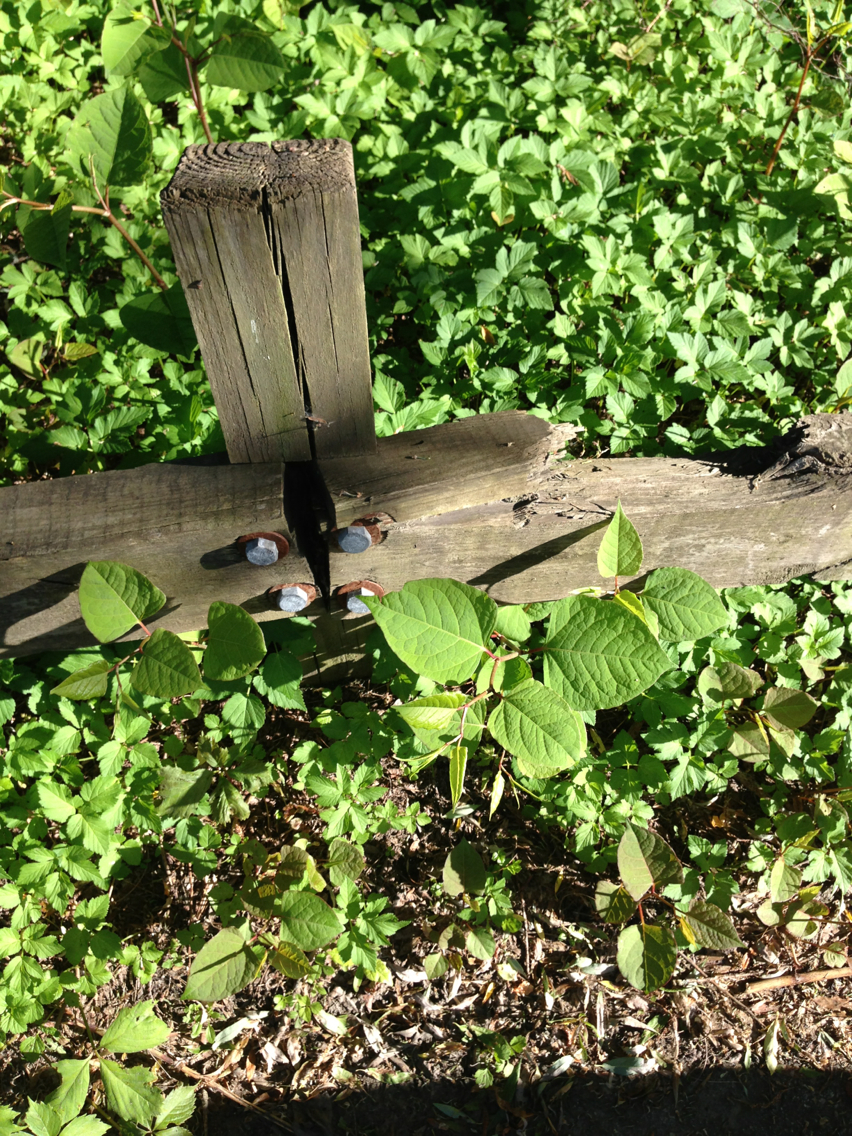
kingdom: Plantae
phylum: Tracheophyta
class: Magnoliopsida
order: Caryophyllales
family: Polygonaceae
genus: Reynoutria
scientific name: Reynoutria japonica
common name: Japanese knotweed
